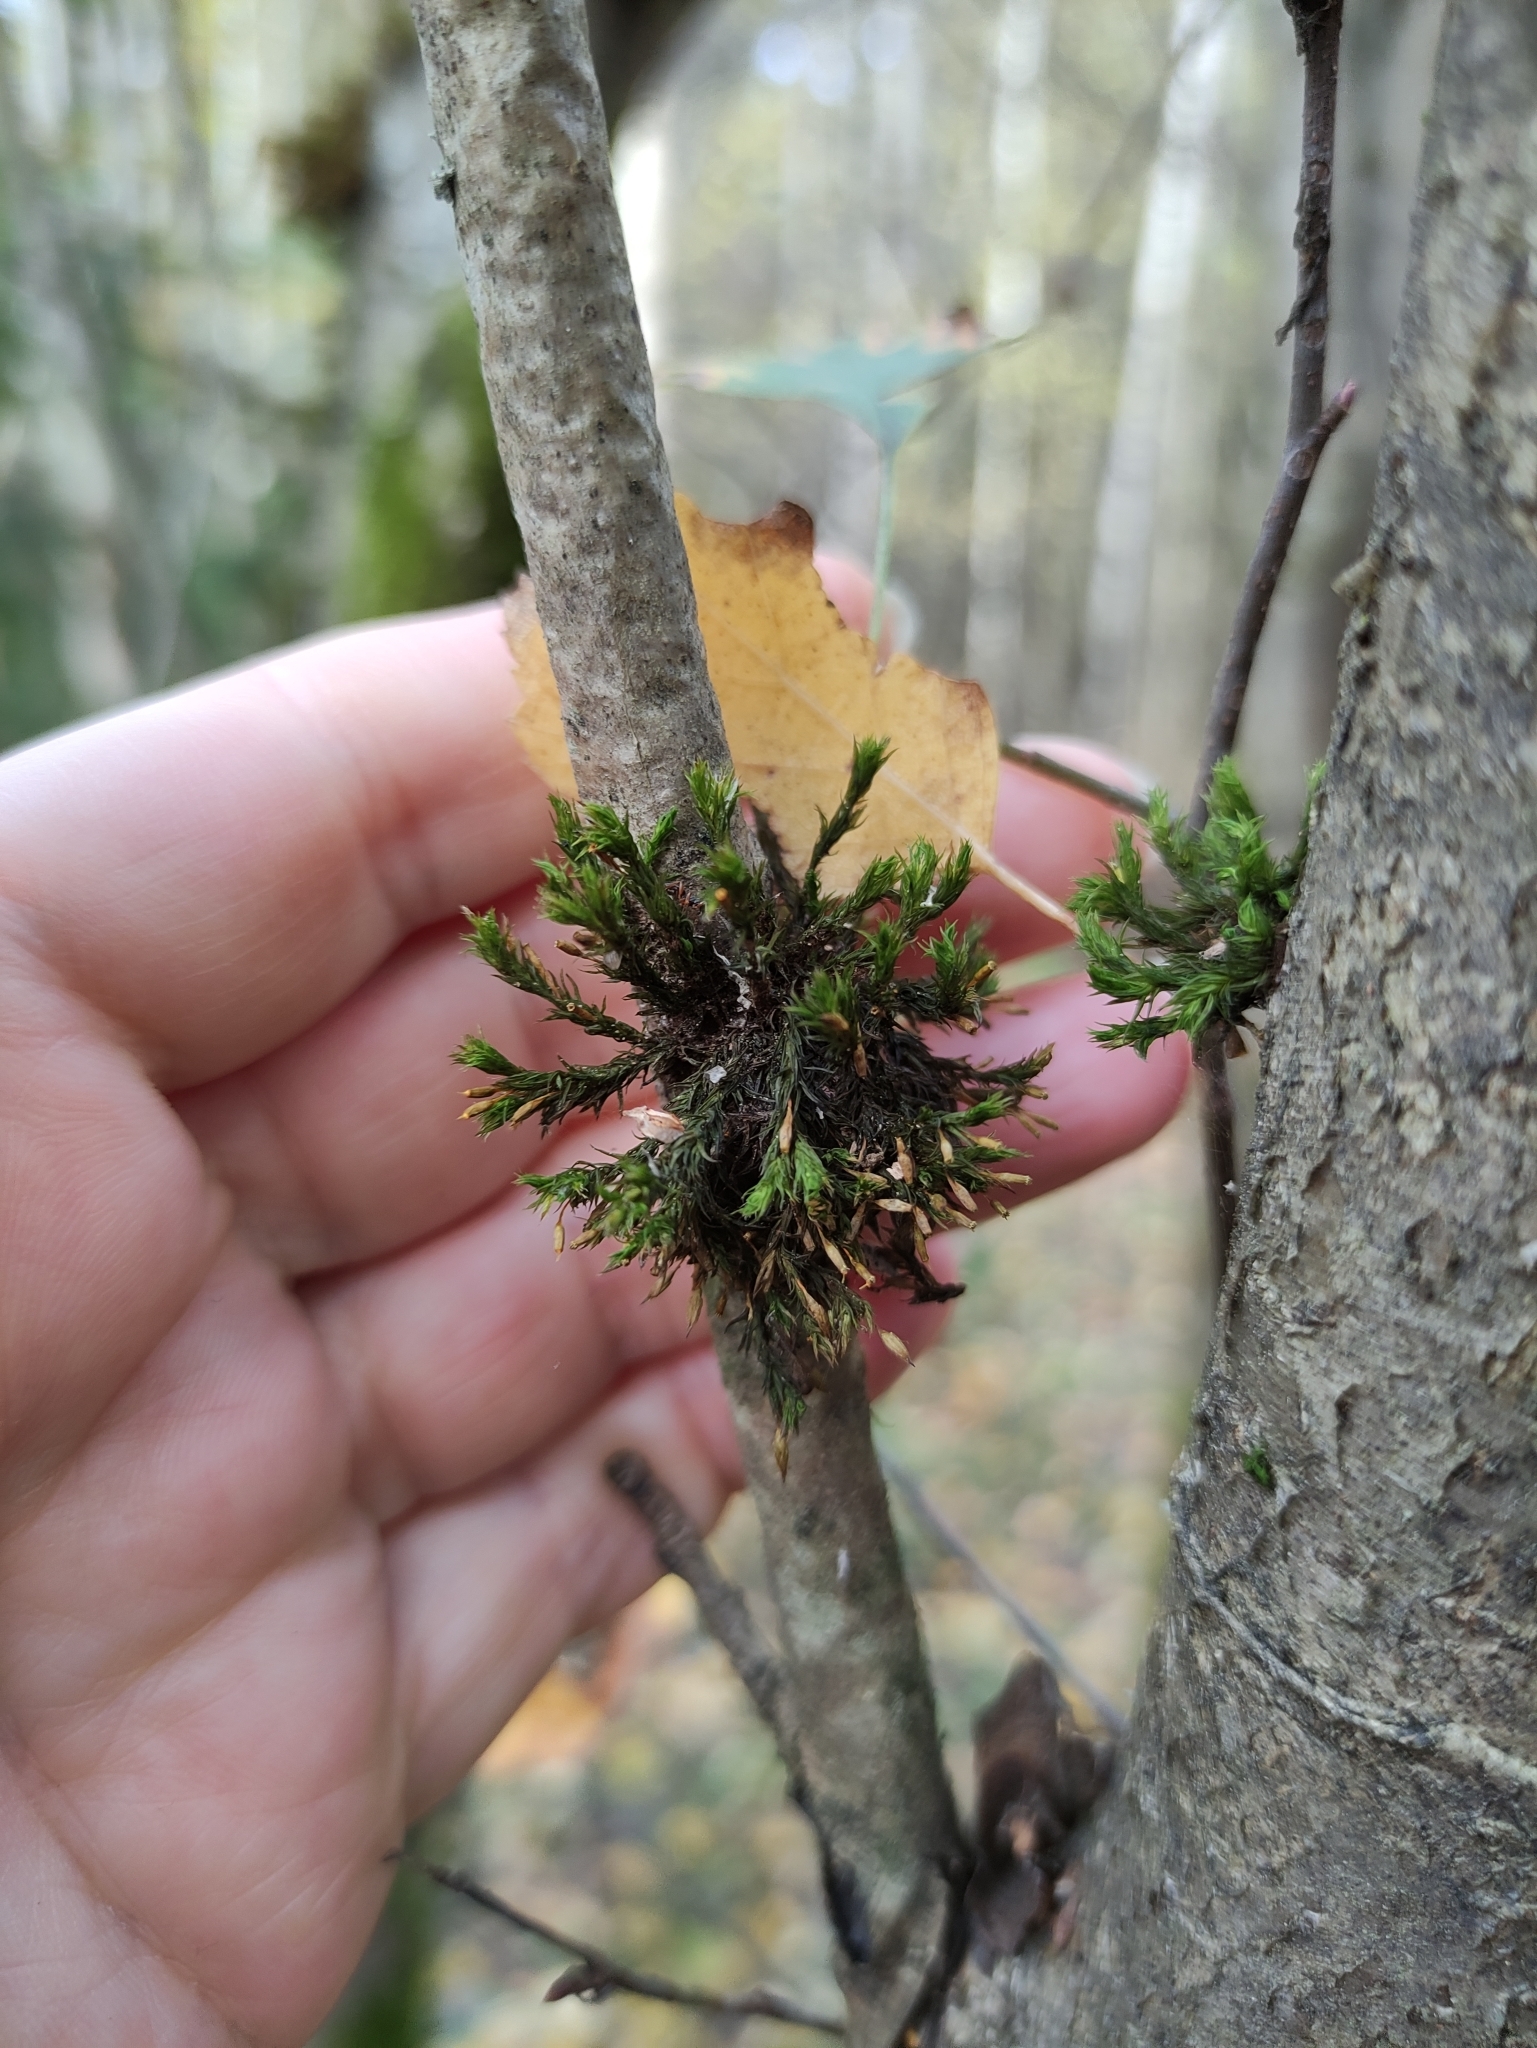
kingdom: Plantae
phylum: Bryophyta
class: Bryopsida
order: Orthotrichales
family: Orthotrichaceae
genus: Lewinskya
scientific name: Lewinskya speciosa
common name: Showy bristle moss
